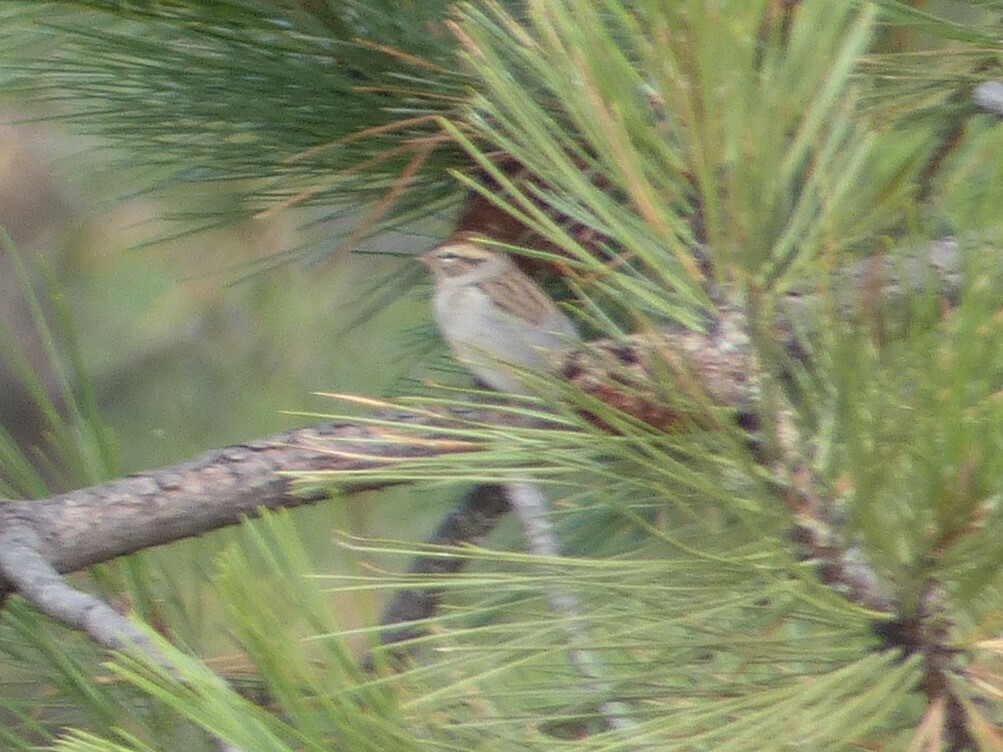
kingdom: Animalia
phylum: Chordata
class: Aves
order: Passeriformes
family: Passerellidae
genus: Spizella
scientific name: Spizella passerina
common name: Chipping sparrow
